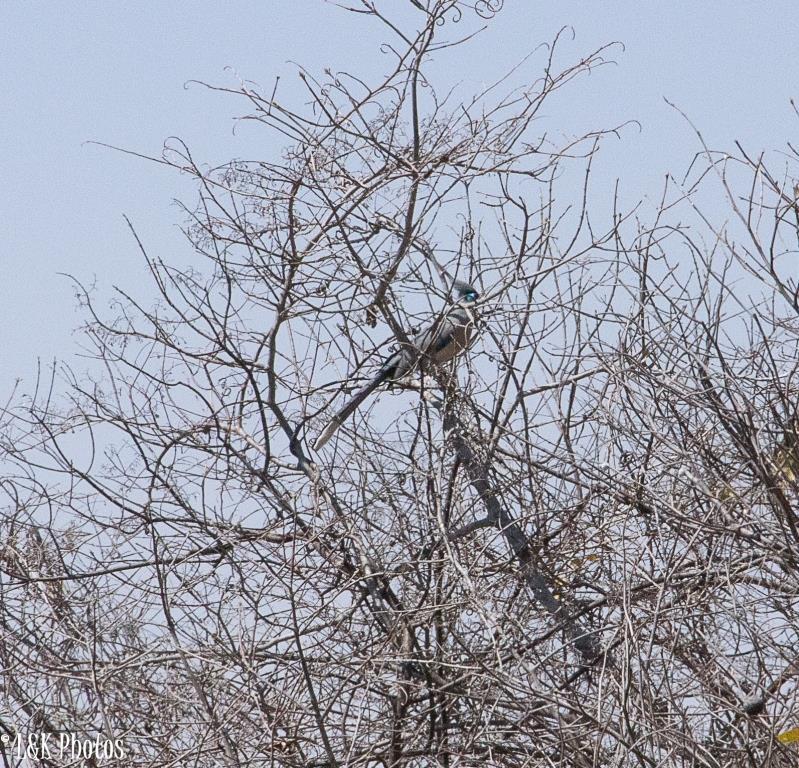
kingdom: Animalia
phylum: Chordata
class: Aves
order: Cuculiformes
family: Cuculidae
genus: Coua
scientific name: Coua cristata
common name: Crested coua
